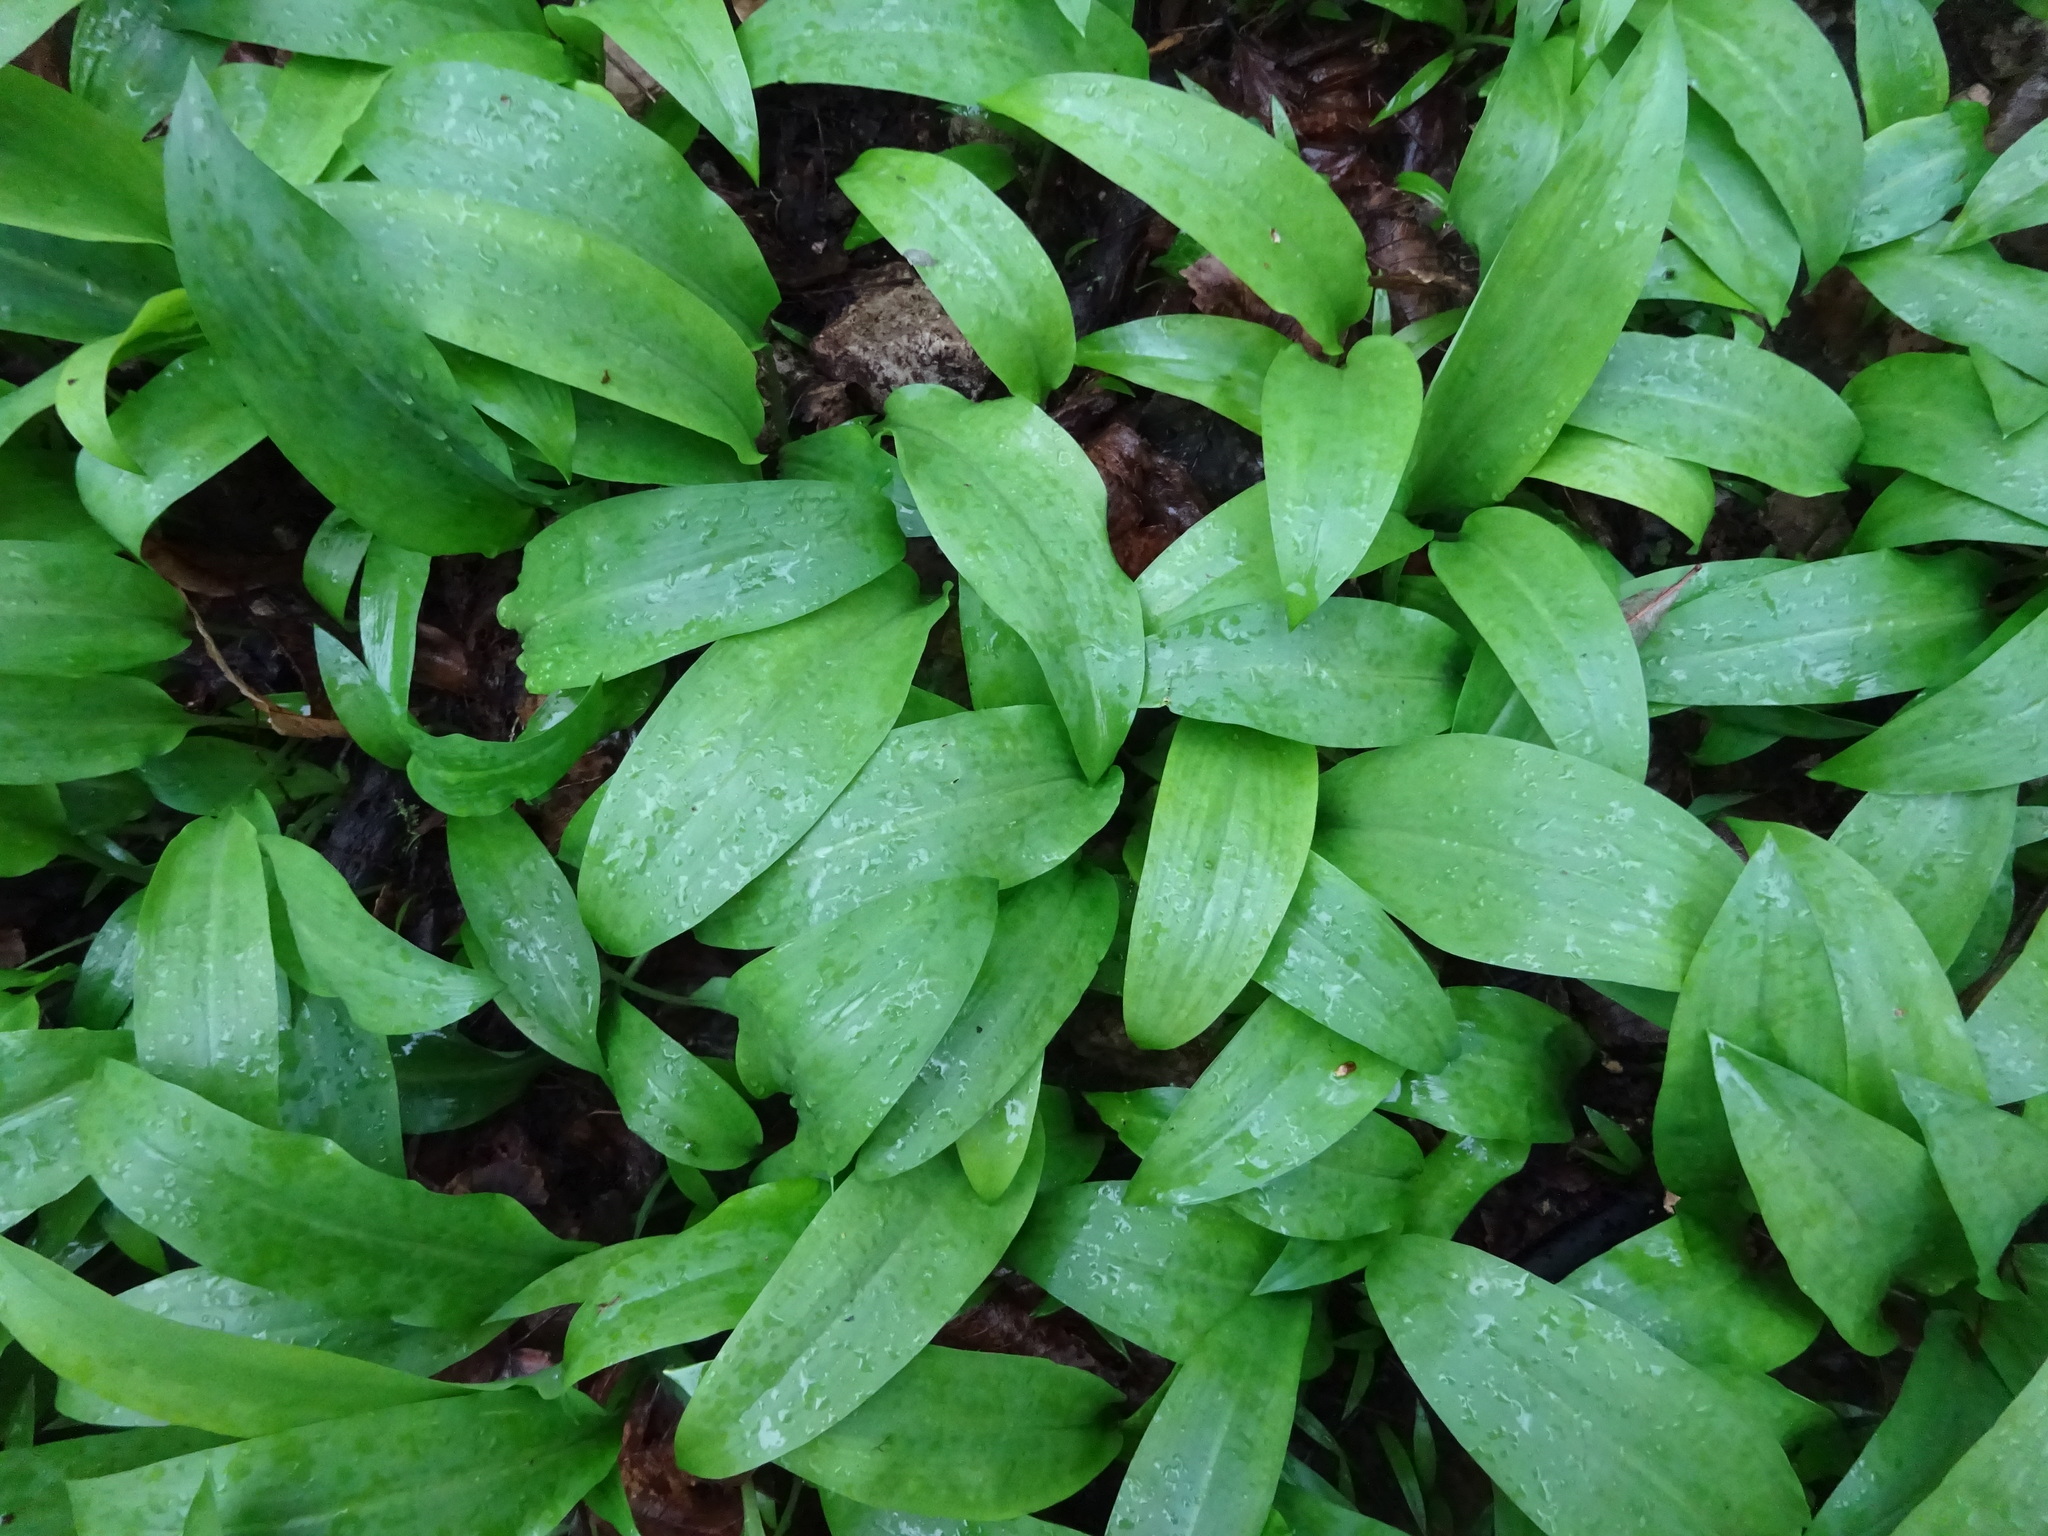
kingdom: Plantae
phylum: Tracheophyta
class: Liliopsida
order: Asparagales
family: Amaryllidaceae
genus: Allium
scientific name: Allium ursinum
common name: Ramsons
